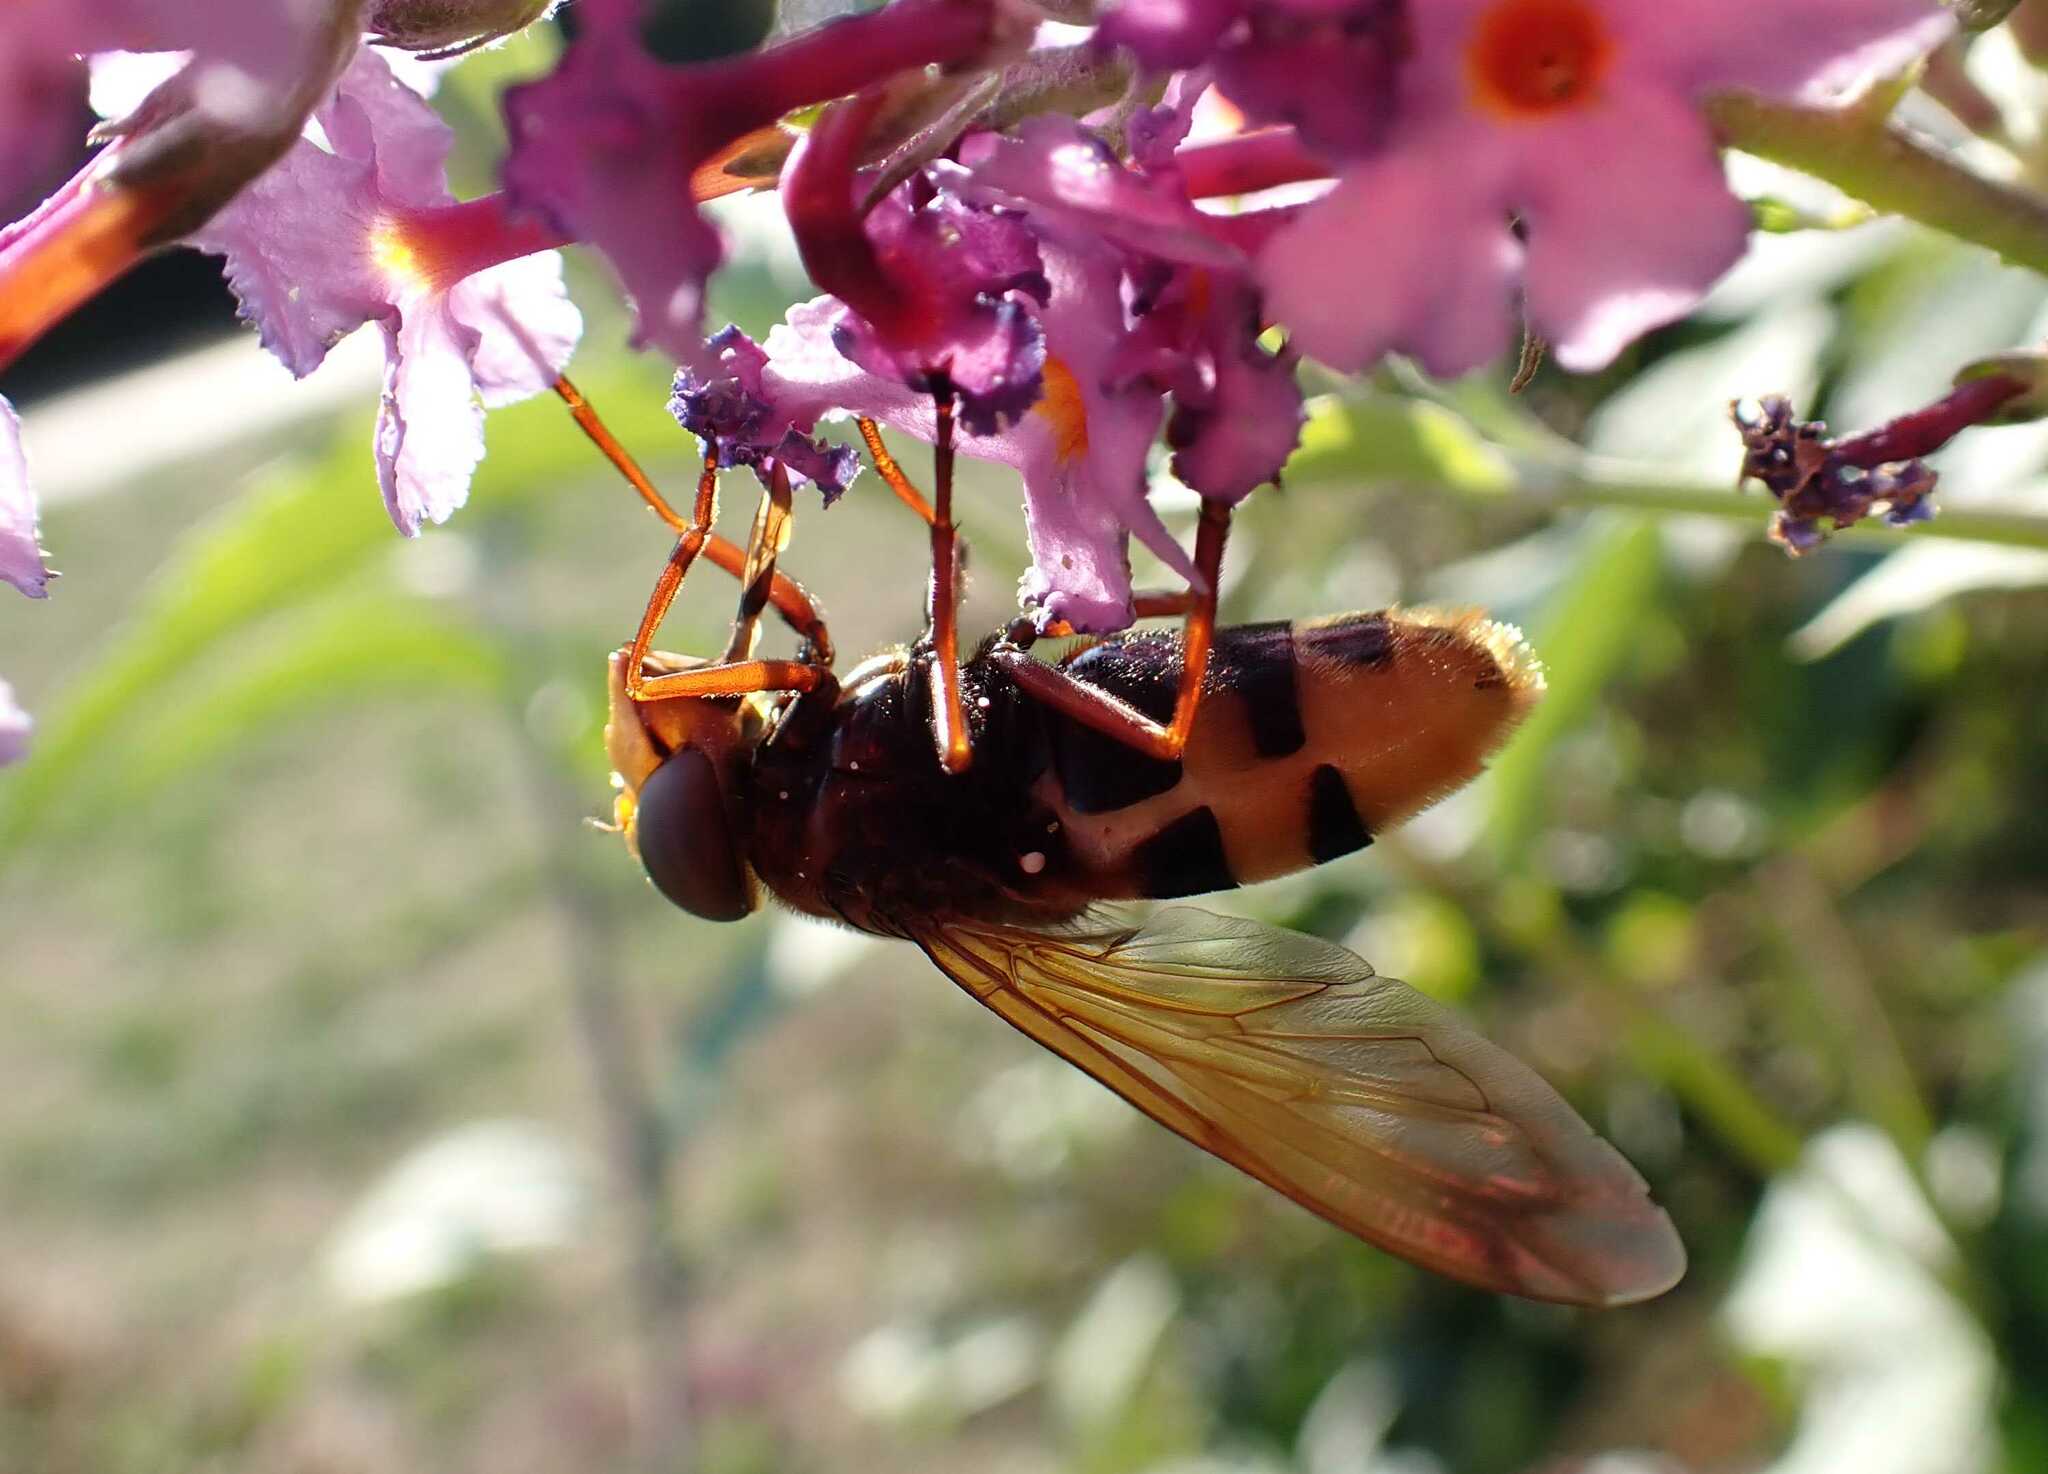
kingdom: Animalia
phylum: Arthropoda
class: Insecta
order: Diptera
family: Syrphidae
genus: Volucella
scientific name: Volucella zonaria
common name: Hornet hoverfly
